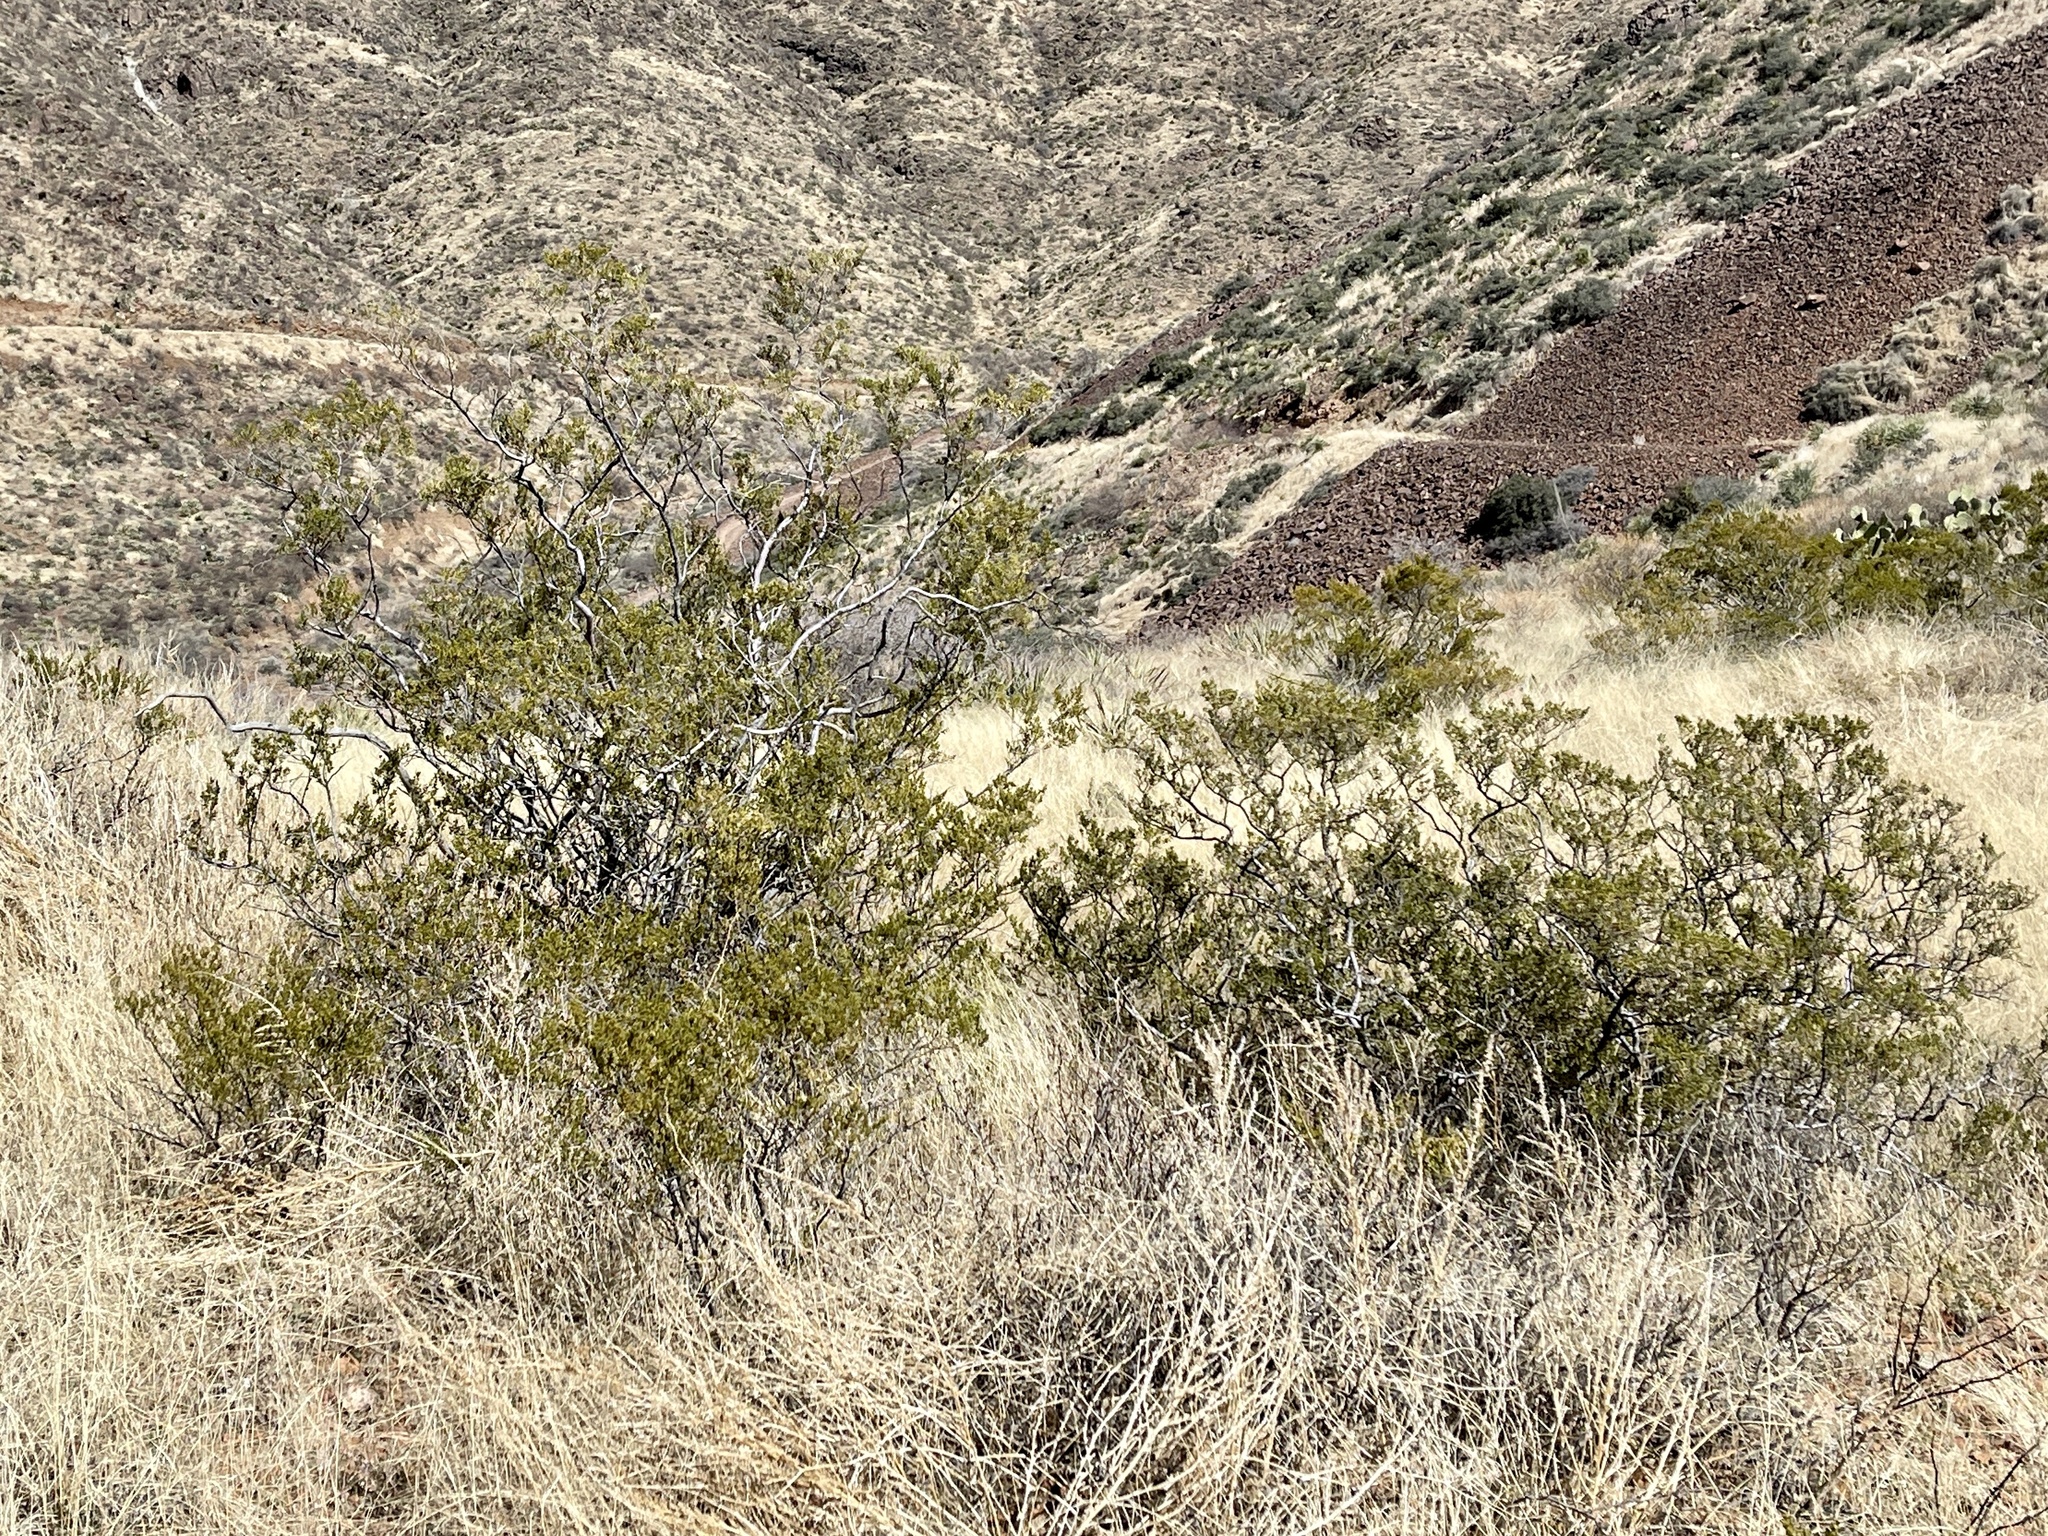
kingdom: Plantae
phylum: Tracheophyta
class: Magnoliopsida
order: Zygophyllales
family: Zygophyllaceae
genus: Larrea
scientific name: Larrea tridentata
